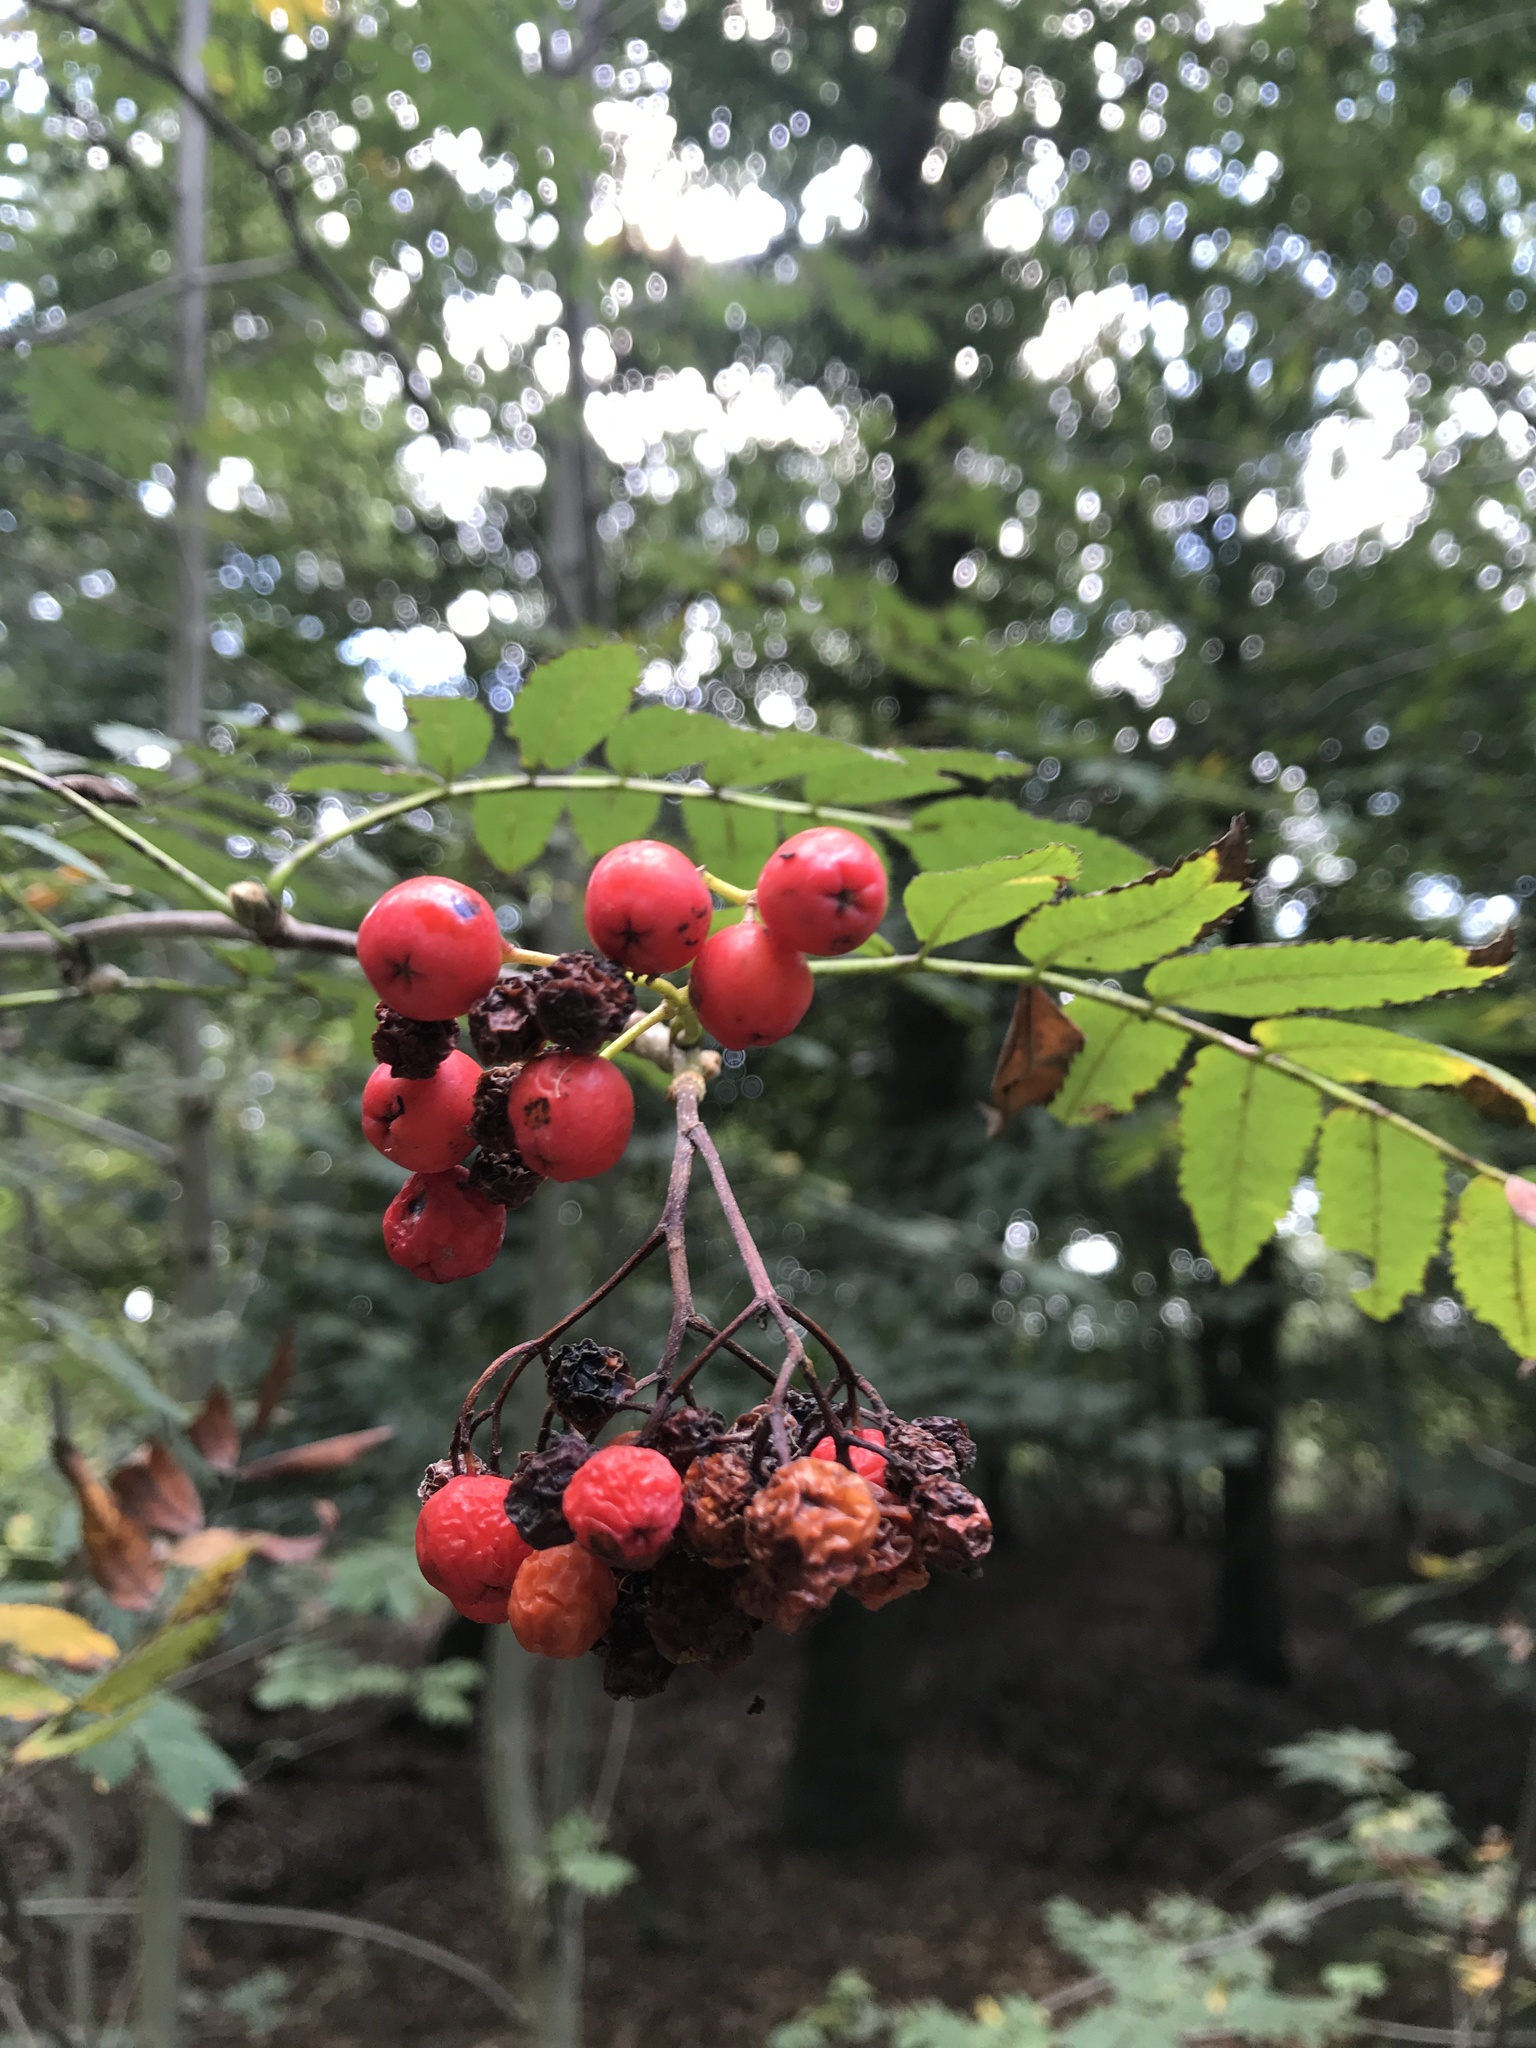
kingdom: Plantae
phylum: Tracheophyta
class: Magnoliopsida
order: Rosales
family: Rosaceae
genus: Sorbus
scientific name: Sorbus aucuparia
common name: Rowan
